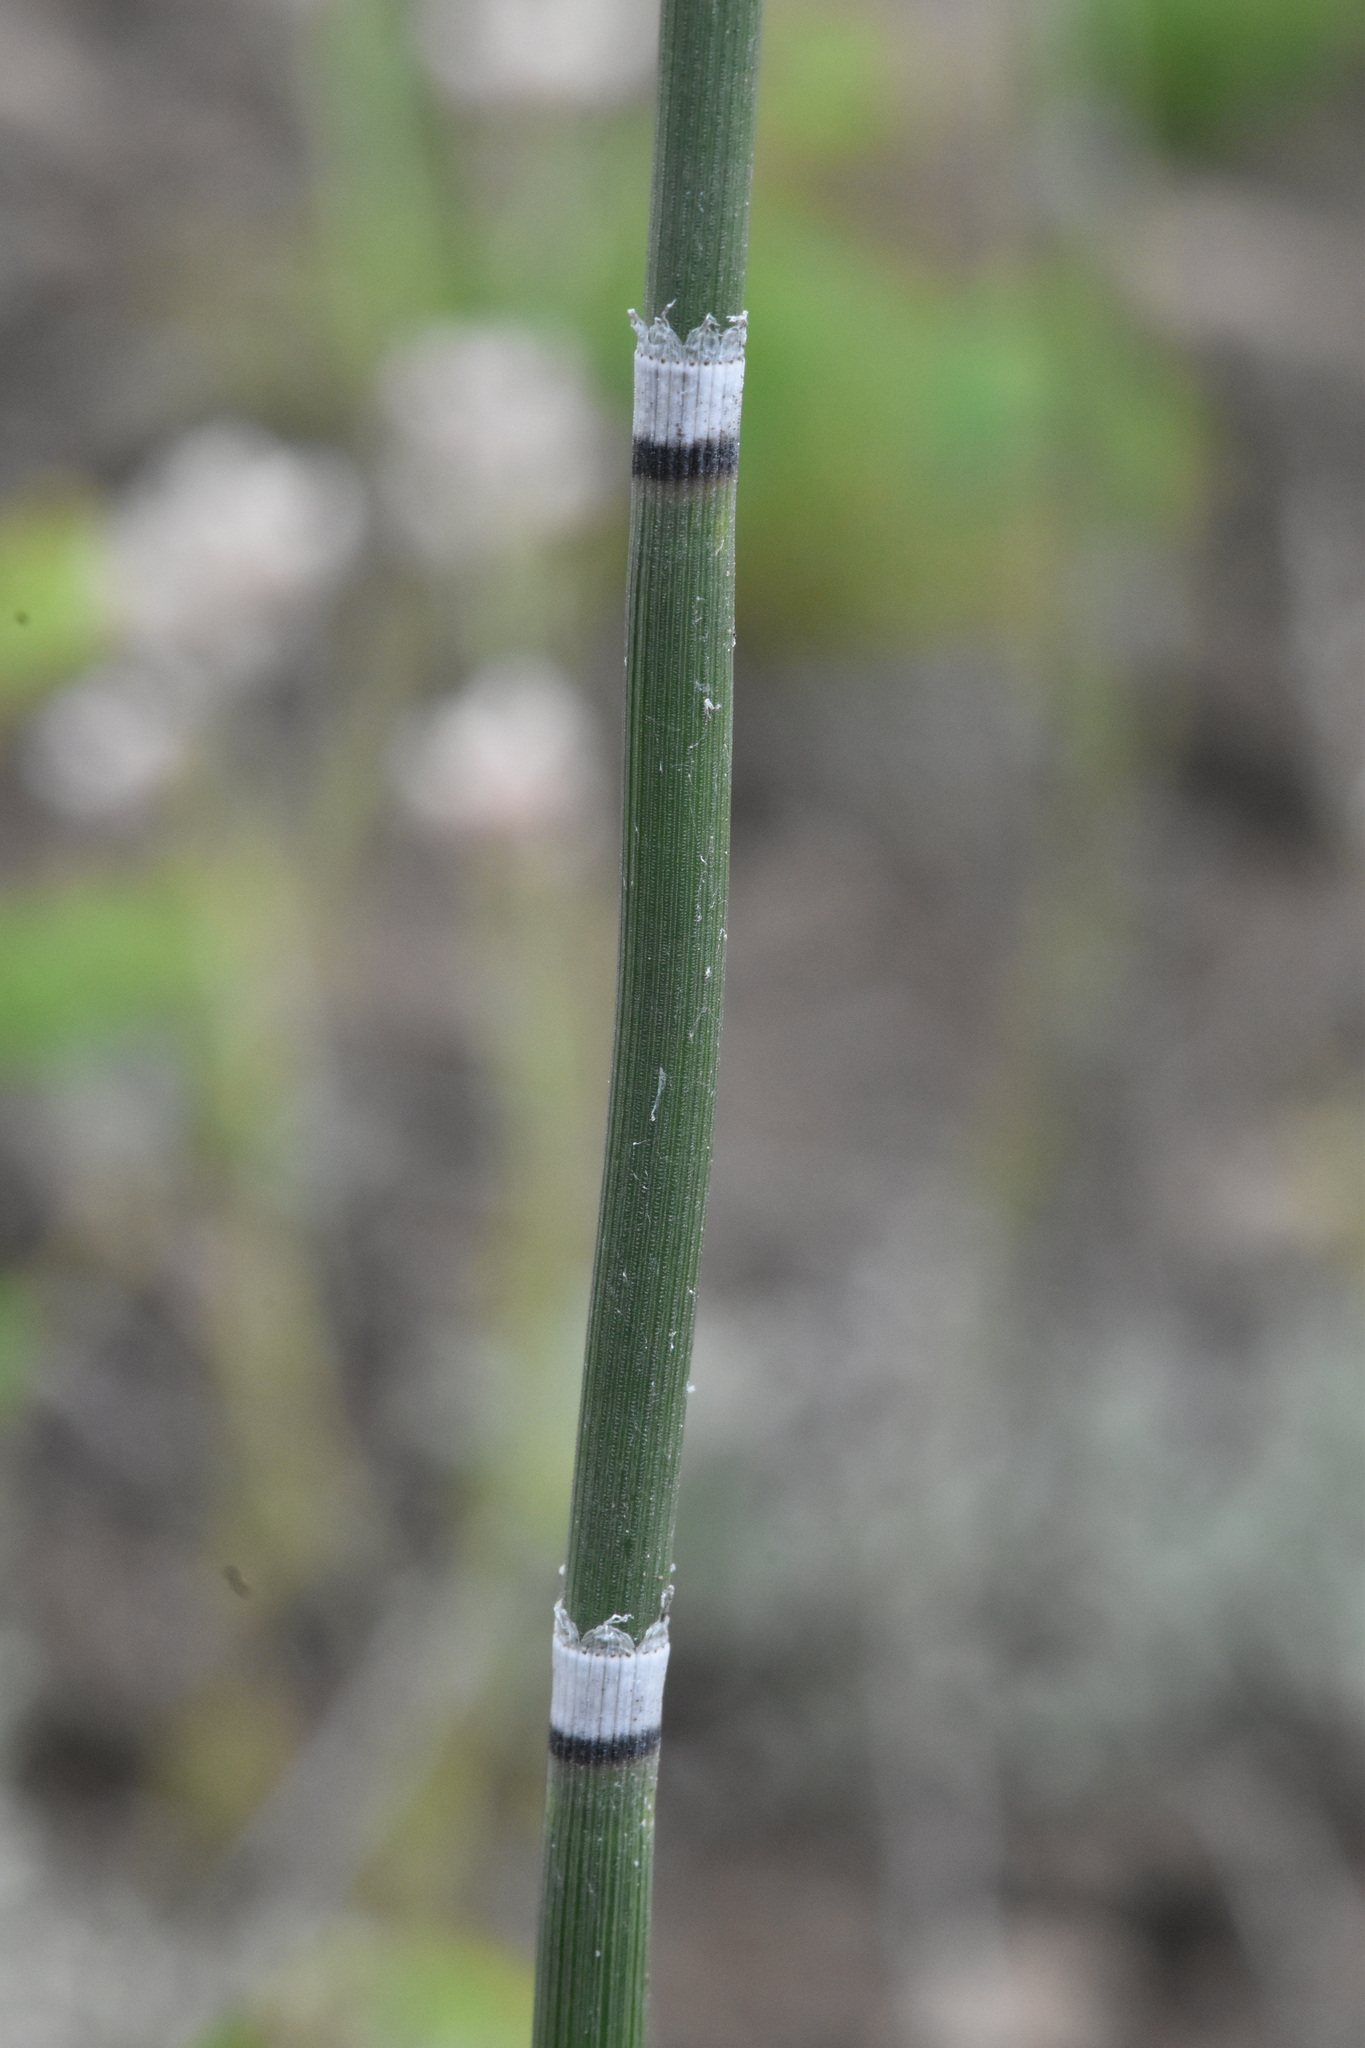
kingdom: Plantae
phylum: Tracheophyta
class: Polypodiopsida
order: Equisetales
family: Equisetaceae
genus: Equisetum
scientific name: Equisetum hyemale
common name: Rough horsetail
